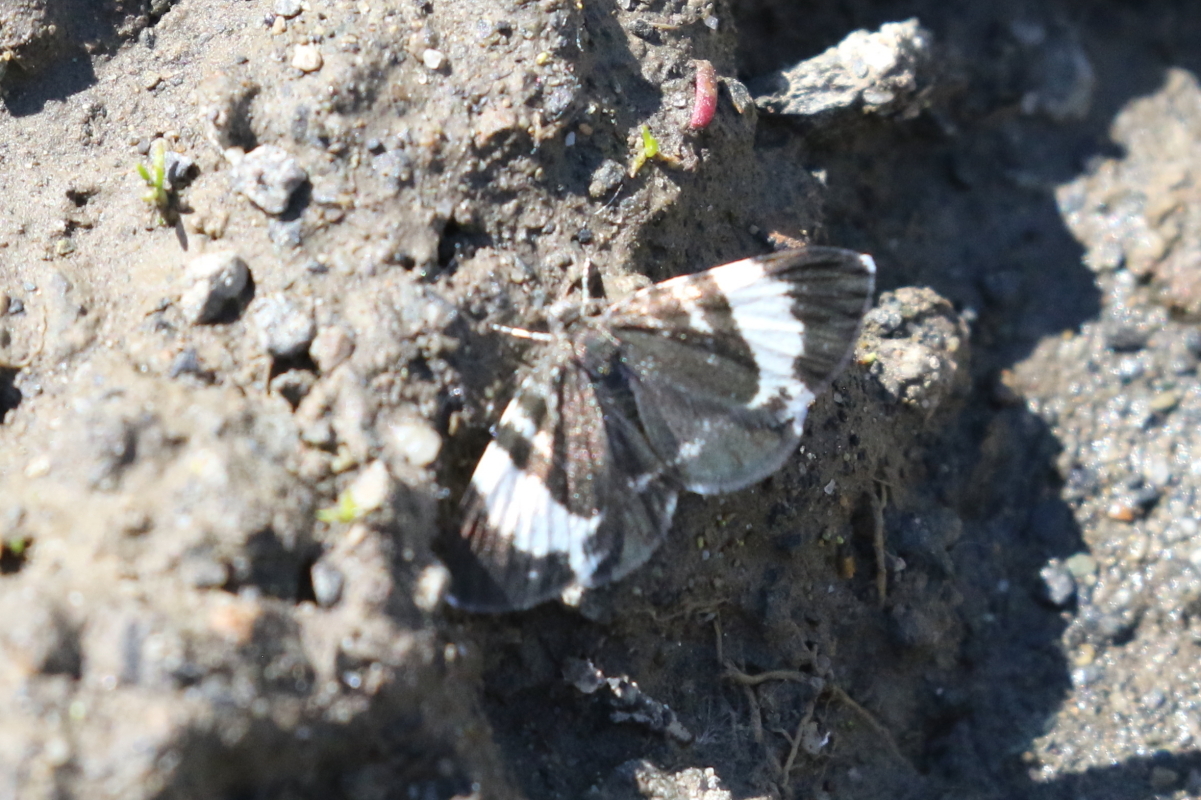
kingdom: Animalia
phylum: Arthropoda
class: Insecta
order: Lepidoptera
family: Geometridae
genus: Trichodezia
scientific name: Trichodezia albovittata
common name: White striped black
